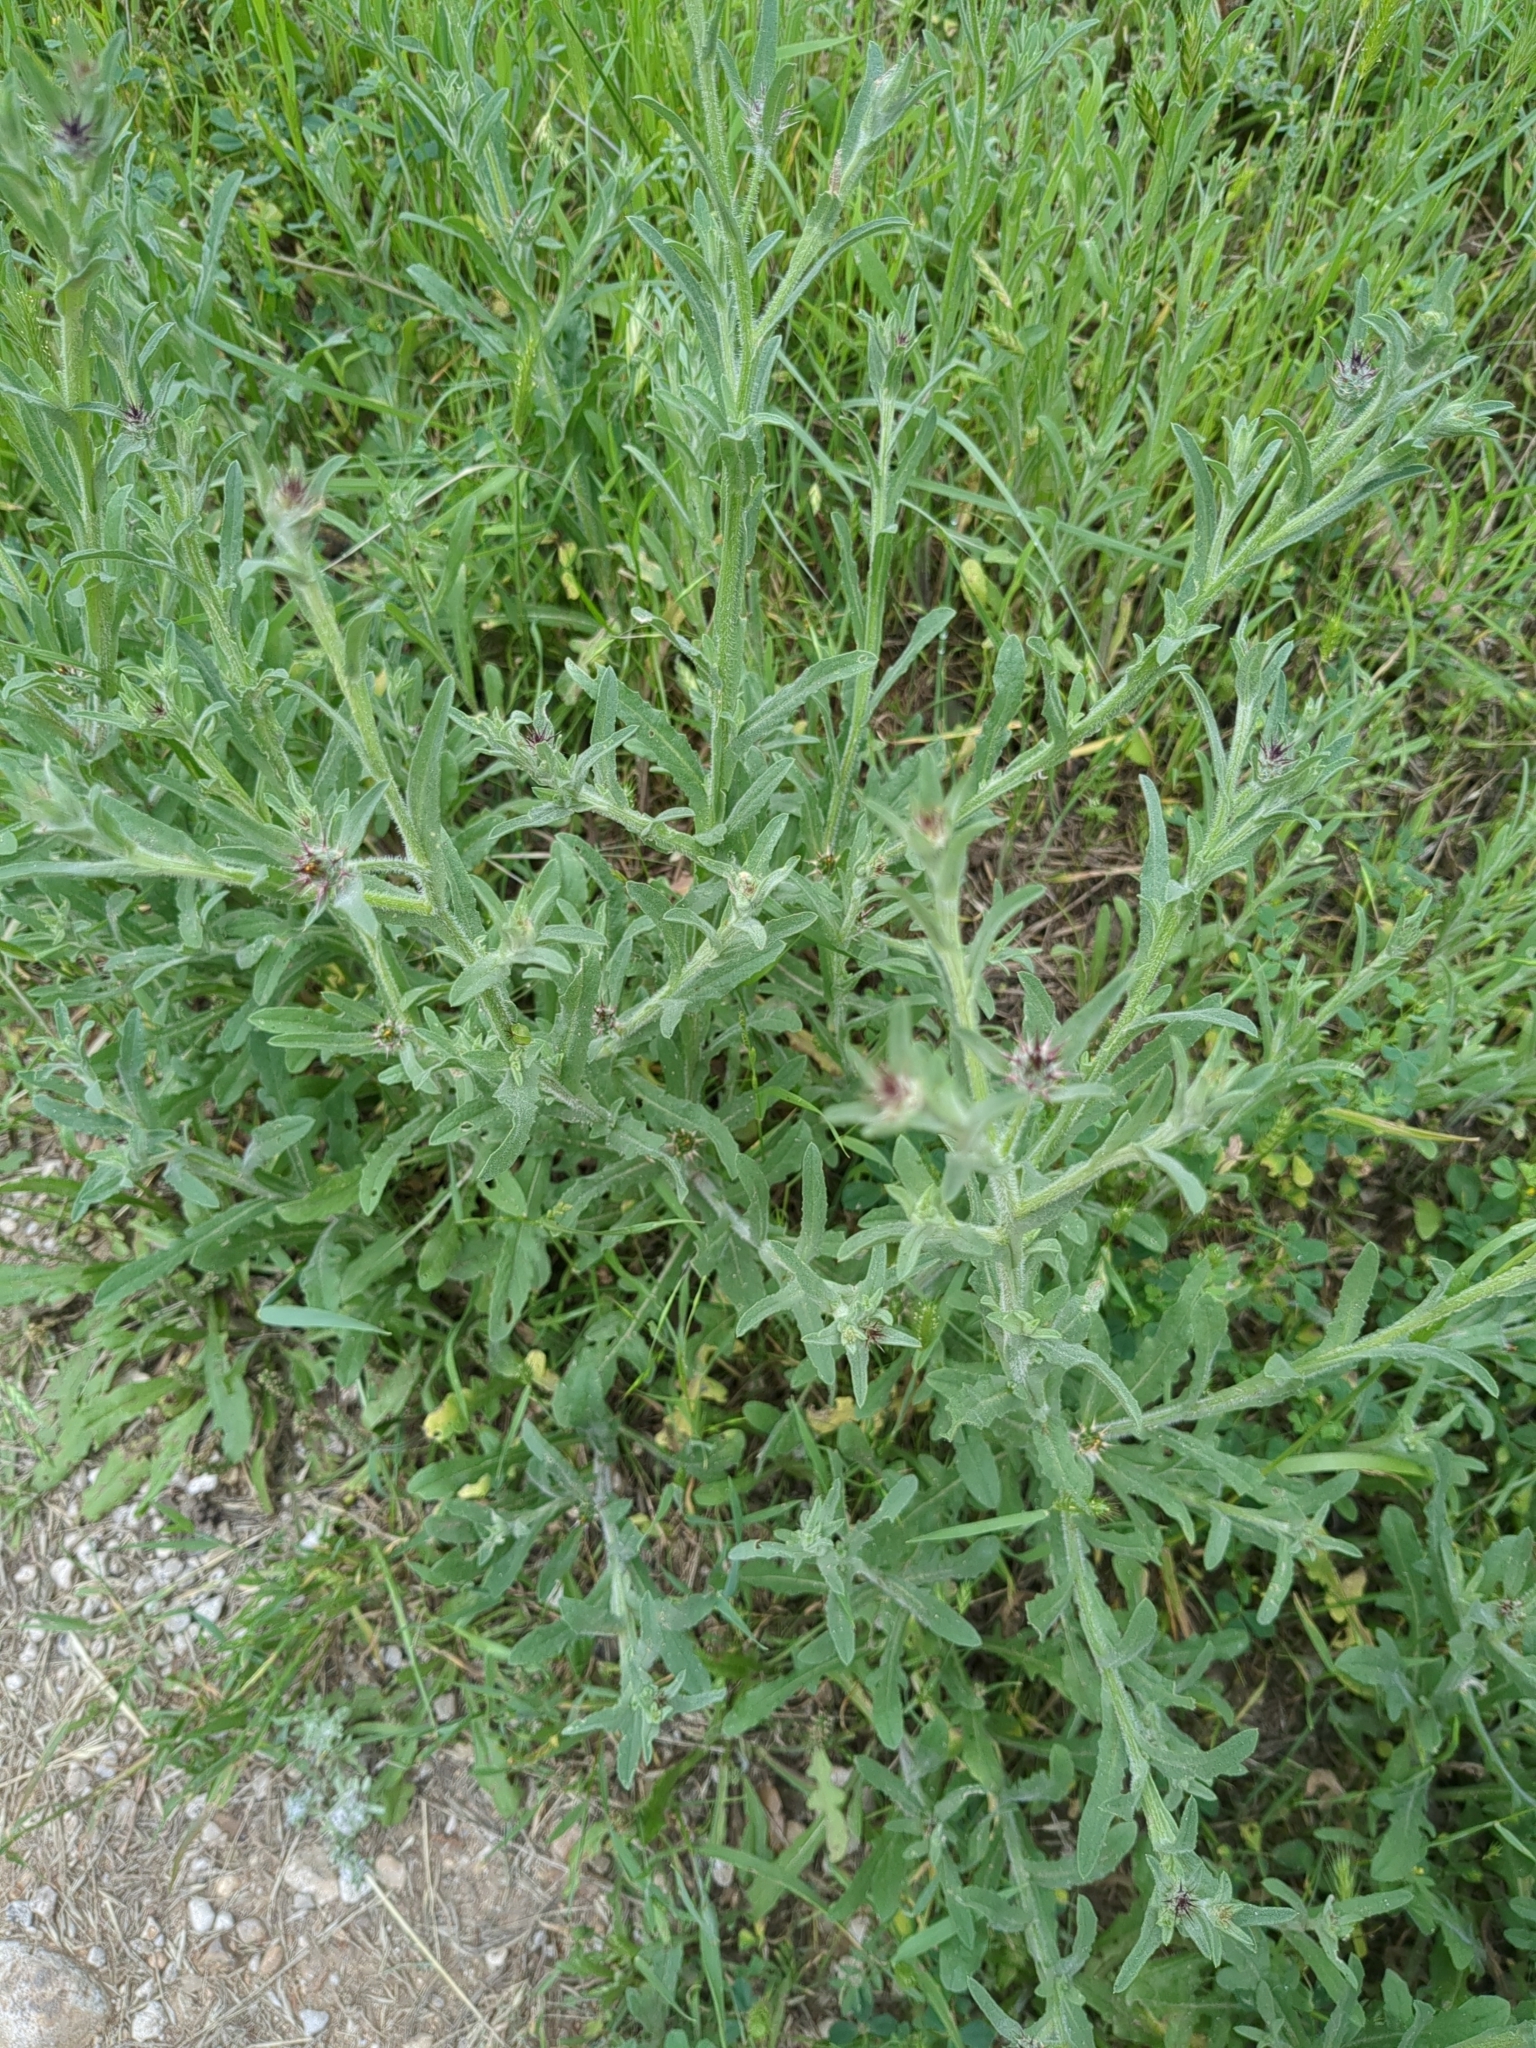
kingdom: Plantae
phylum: Tracheophyta
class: Magnoliopsida
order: Asterales
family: Asteraceae
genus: Centaurea
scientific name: Centaurea melitensis
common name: Maltese star-thistle
